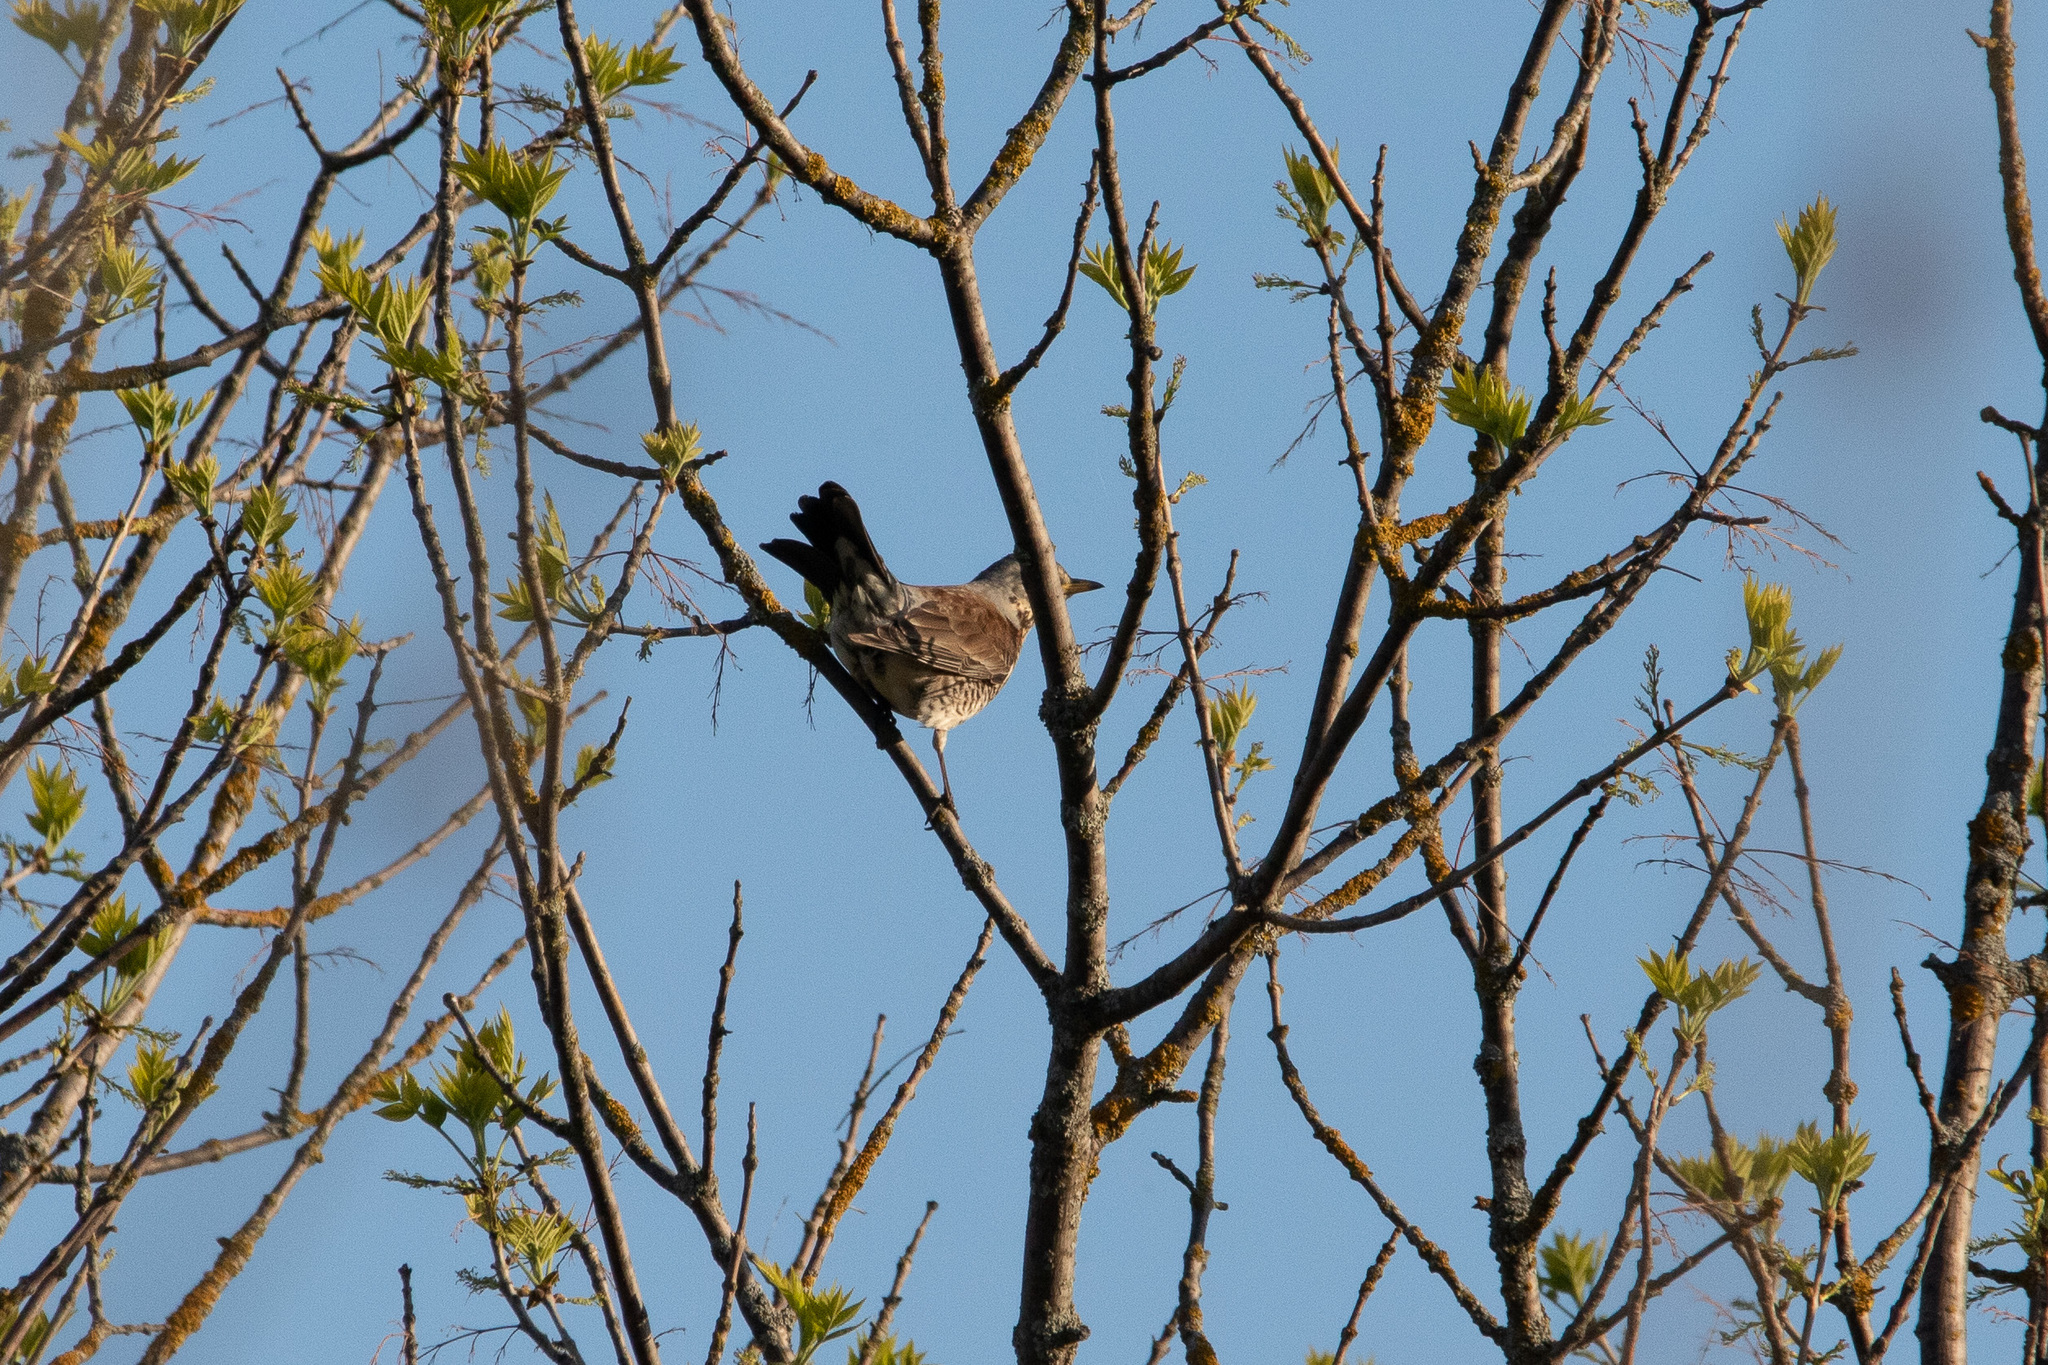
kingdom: Animalia
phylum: Chordata
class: Aves
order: Passeriformes
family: Turdidae
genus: Turdus
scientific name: Turdus pilaris
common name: Fieldfare
